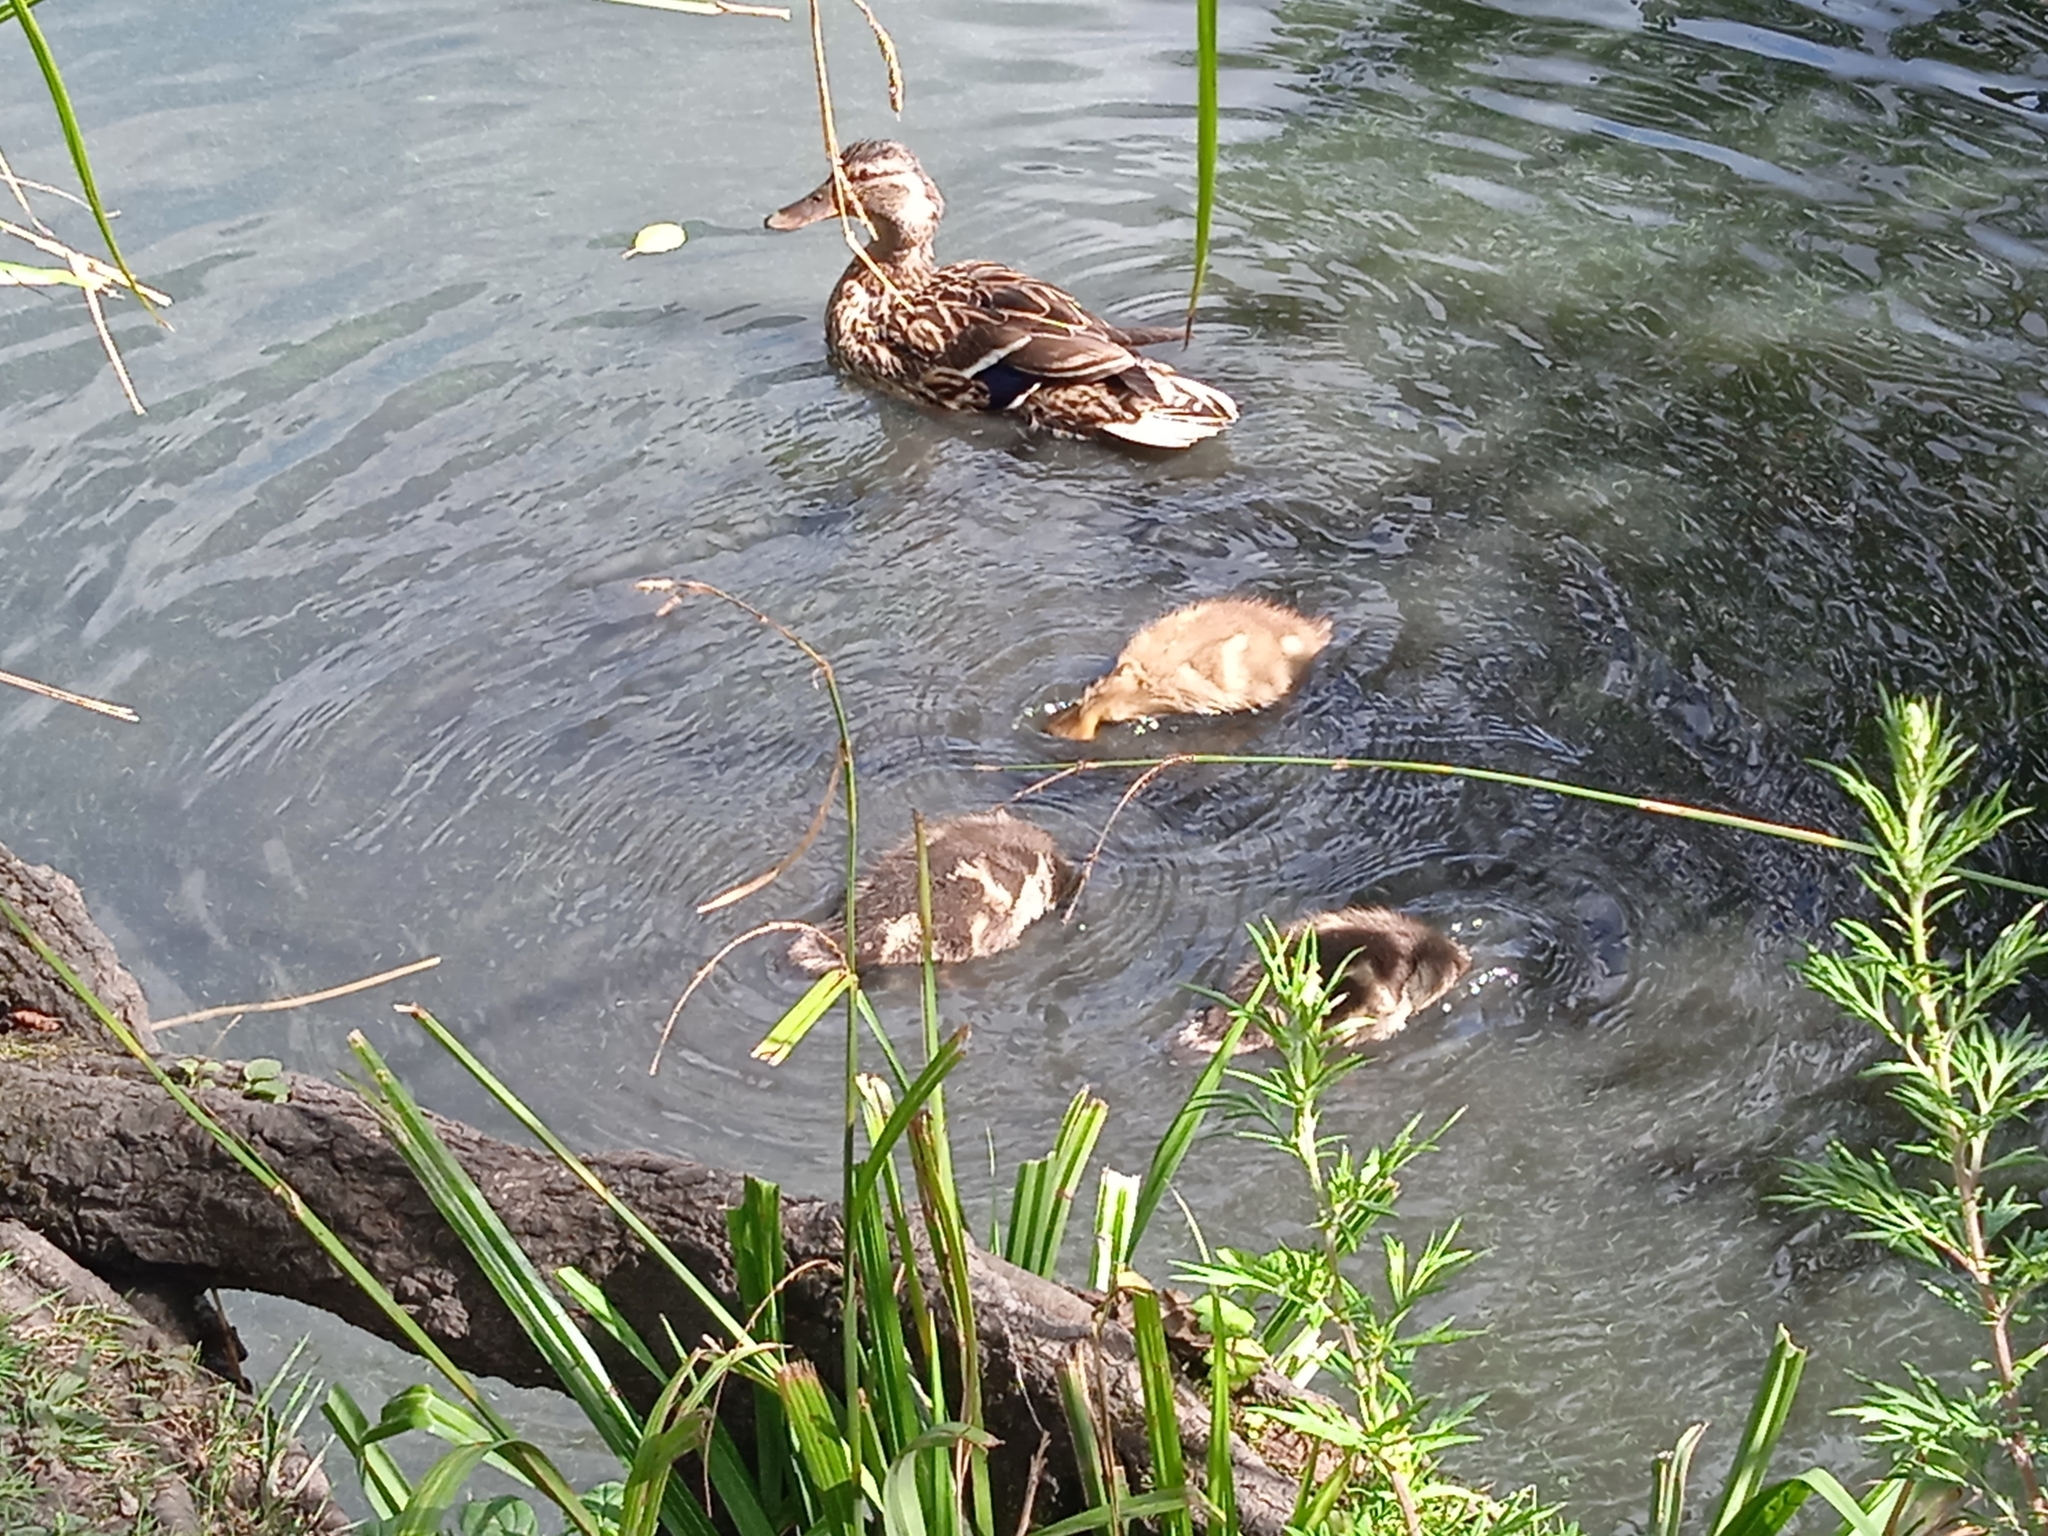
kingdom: Animalia
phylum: Chordata
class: Aves
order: Anseriformes
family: Anatidae
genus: Anas
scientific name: Anas platyrhynchos
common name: Mallard
